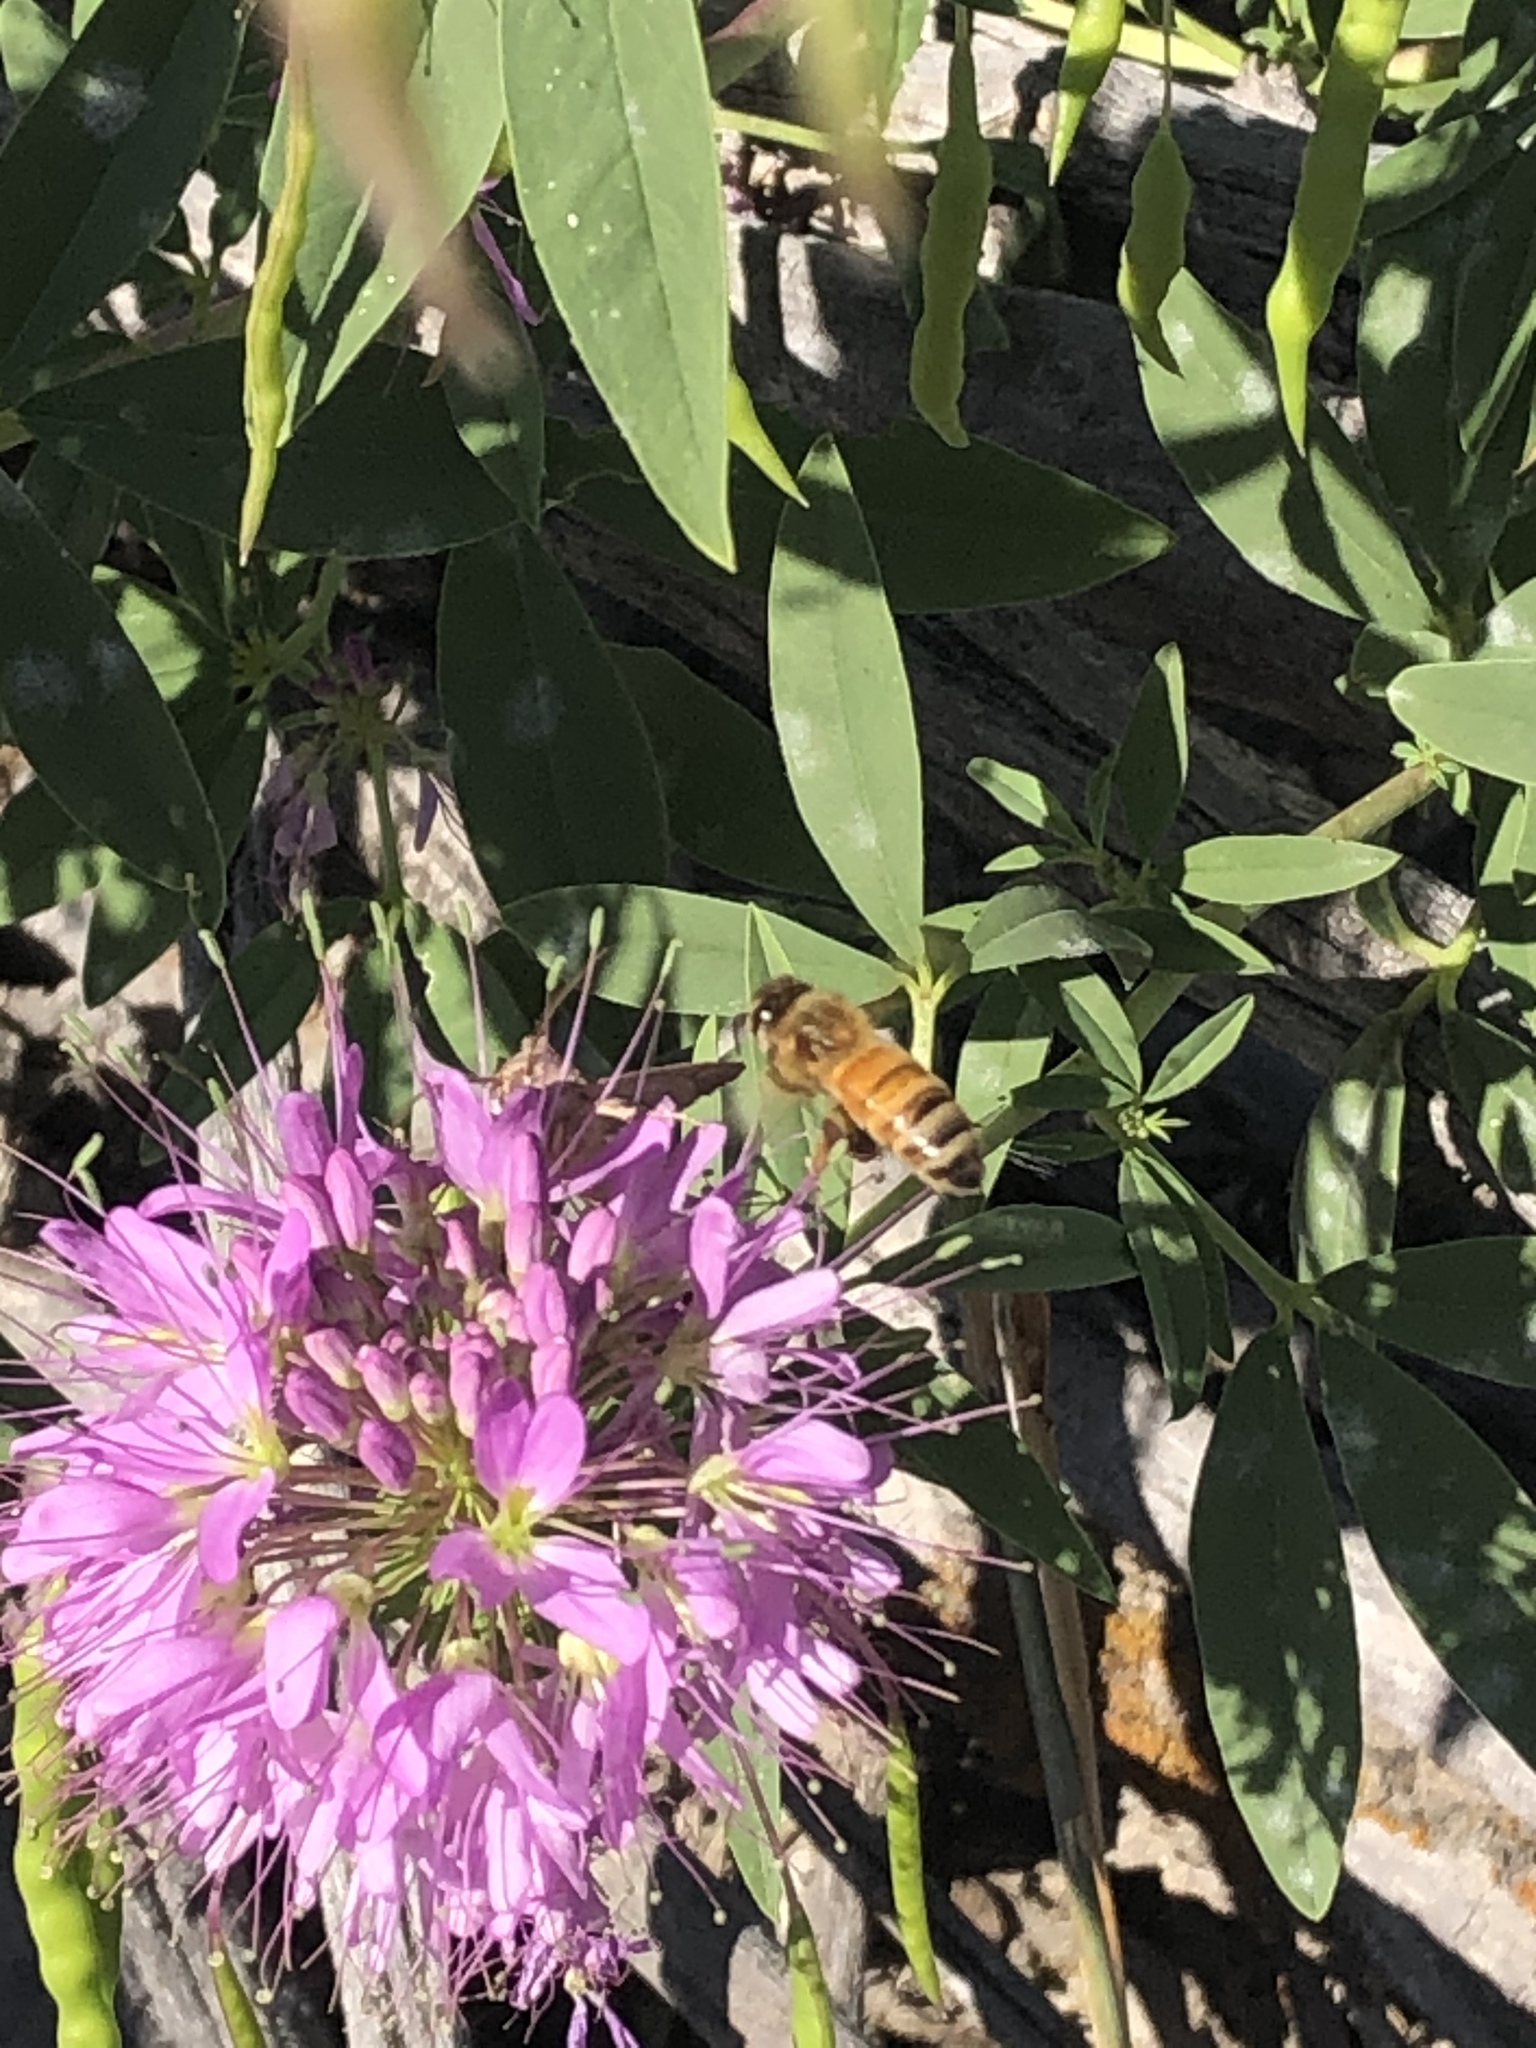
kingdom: Animalia
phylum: Arthropoda
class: Insecta
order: Hymenoptera
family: Apidae
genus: Apis
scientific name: Apis mellifera
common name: Honey bee
